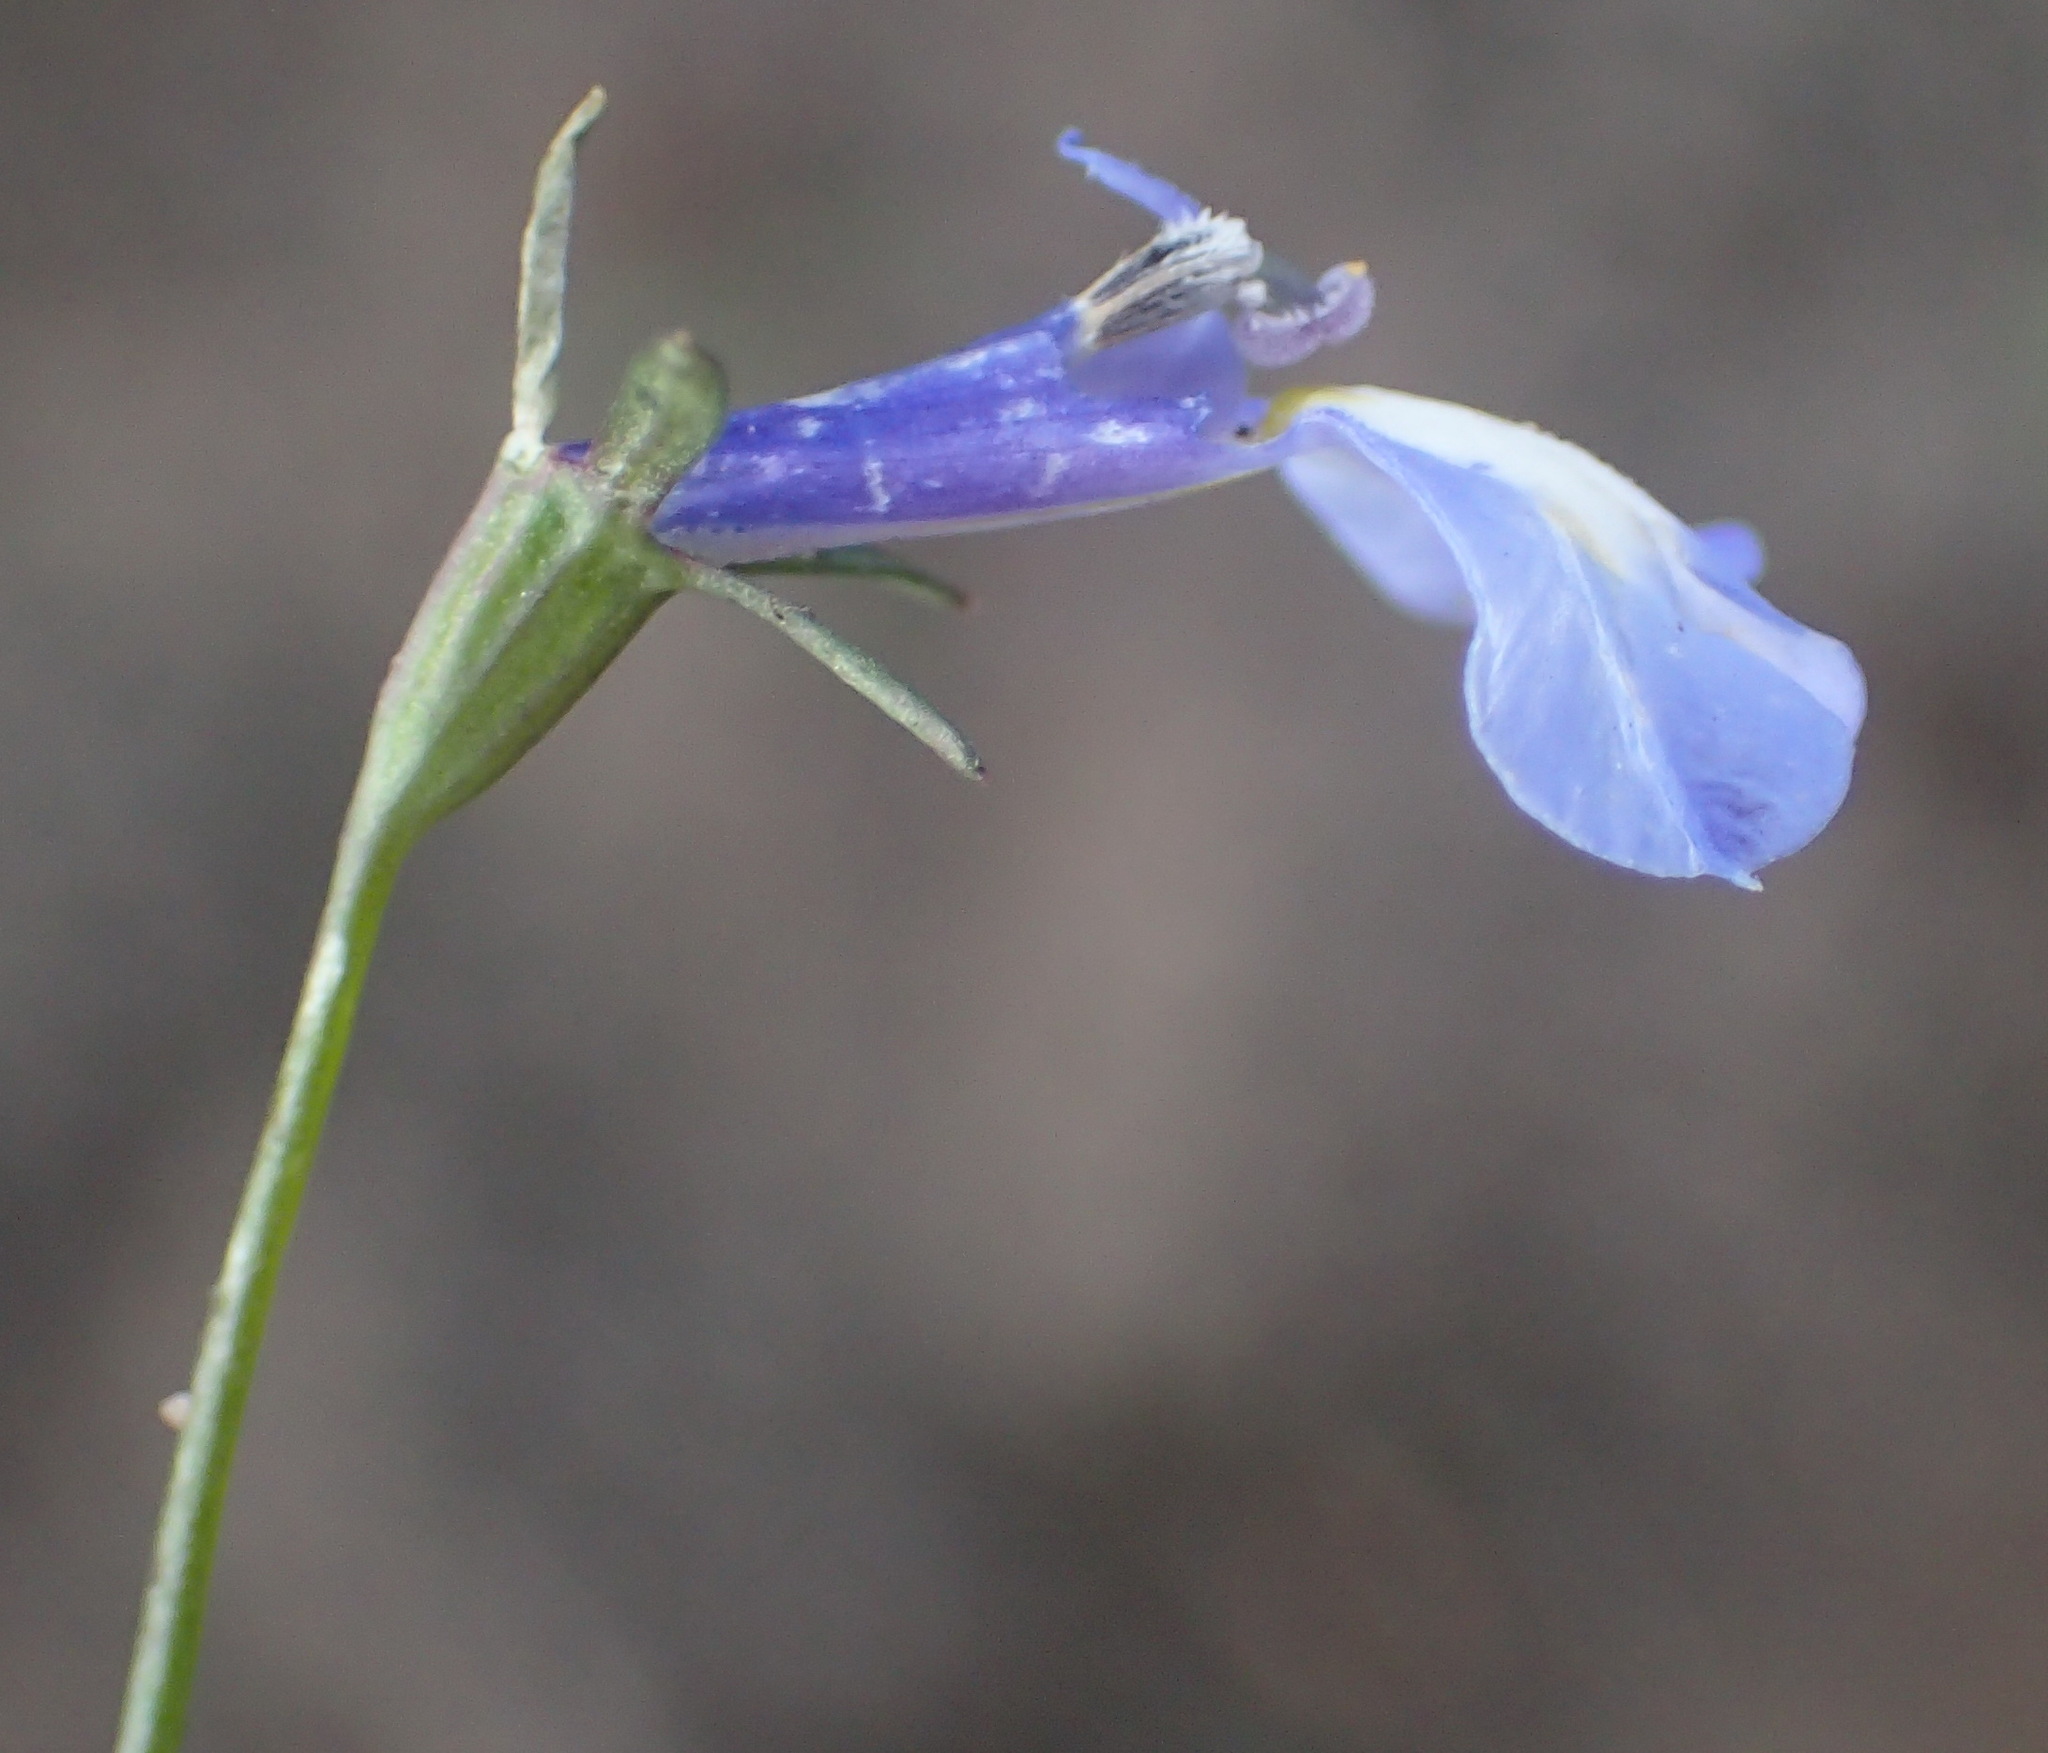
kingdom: Plantae
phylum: Tracheophyta
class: Magnoliopsida
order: Asterales
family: Campanulaceae
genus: Lobelia
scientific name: Lobelia erinus
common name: Edging lobelia
